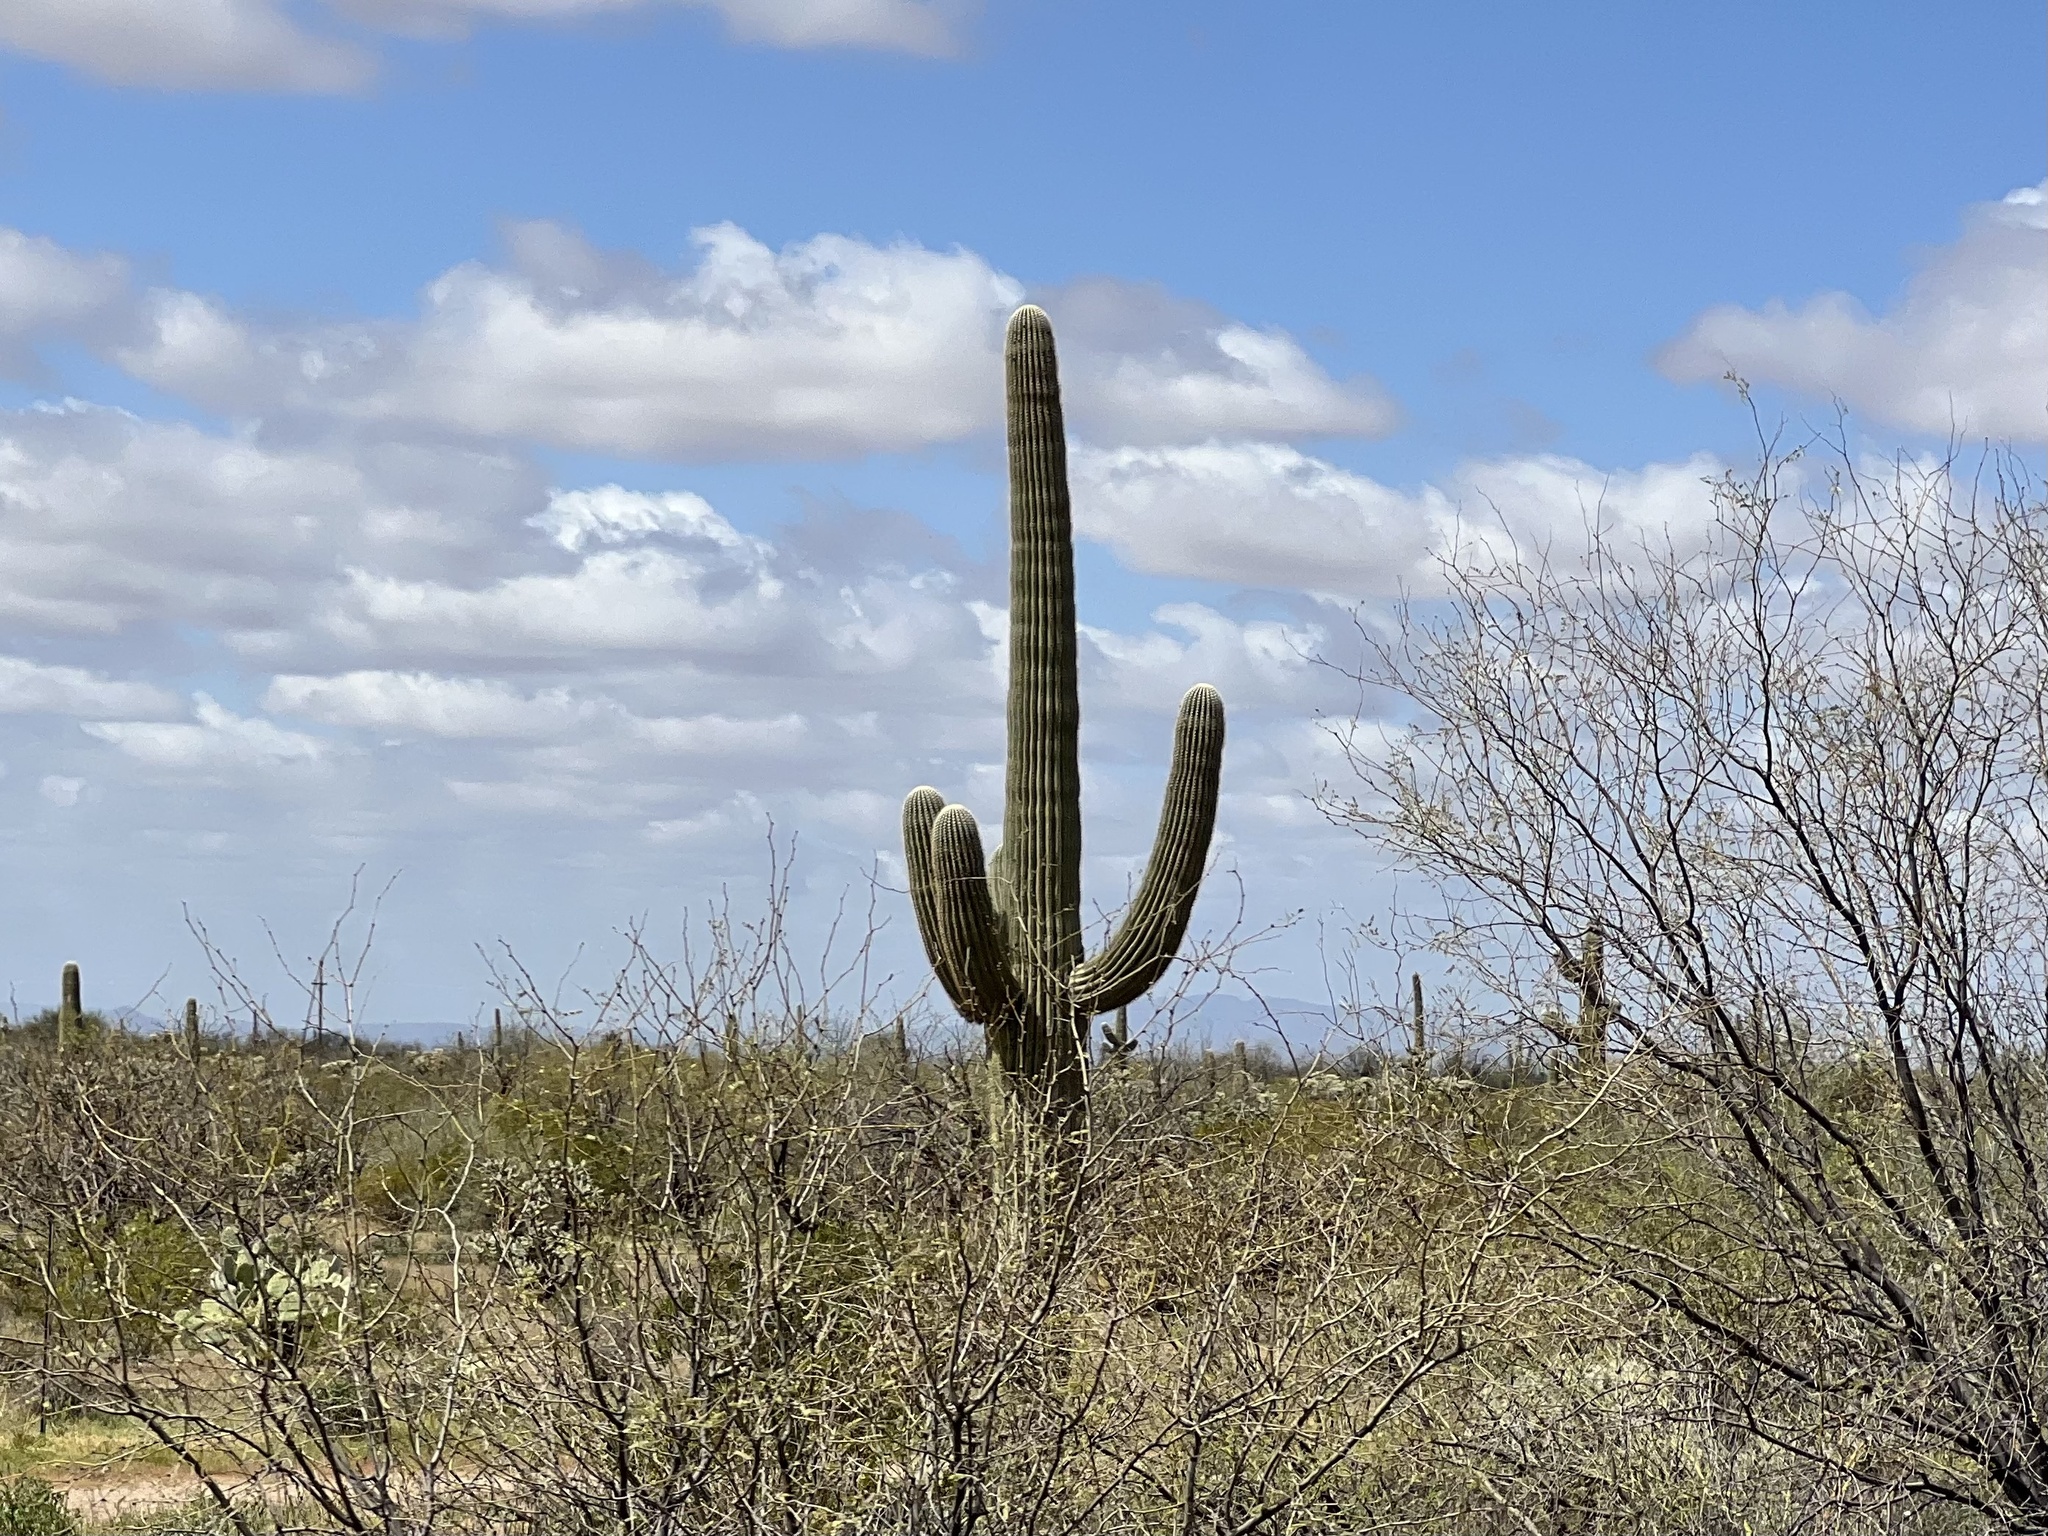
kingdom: Plantae
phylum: Tracheophyta
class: Magnoliopsida
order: Caryophyllales
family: Cactaceae
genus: Carnegiea
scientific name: Carnegiea gigantea
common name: Saguaro
